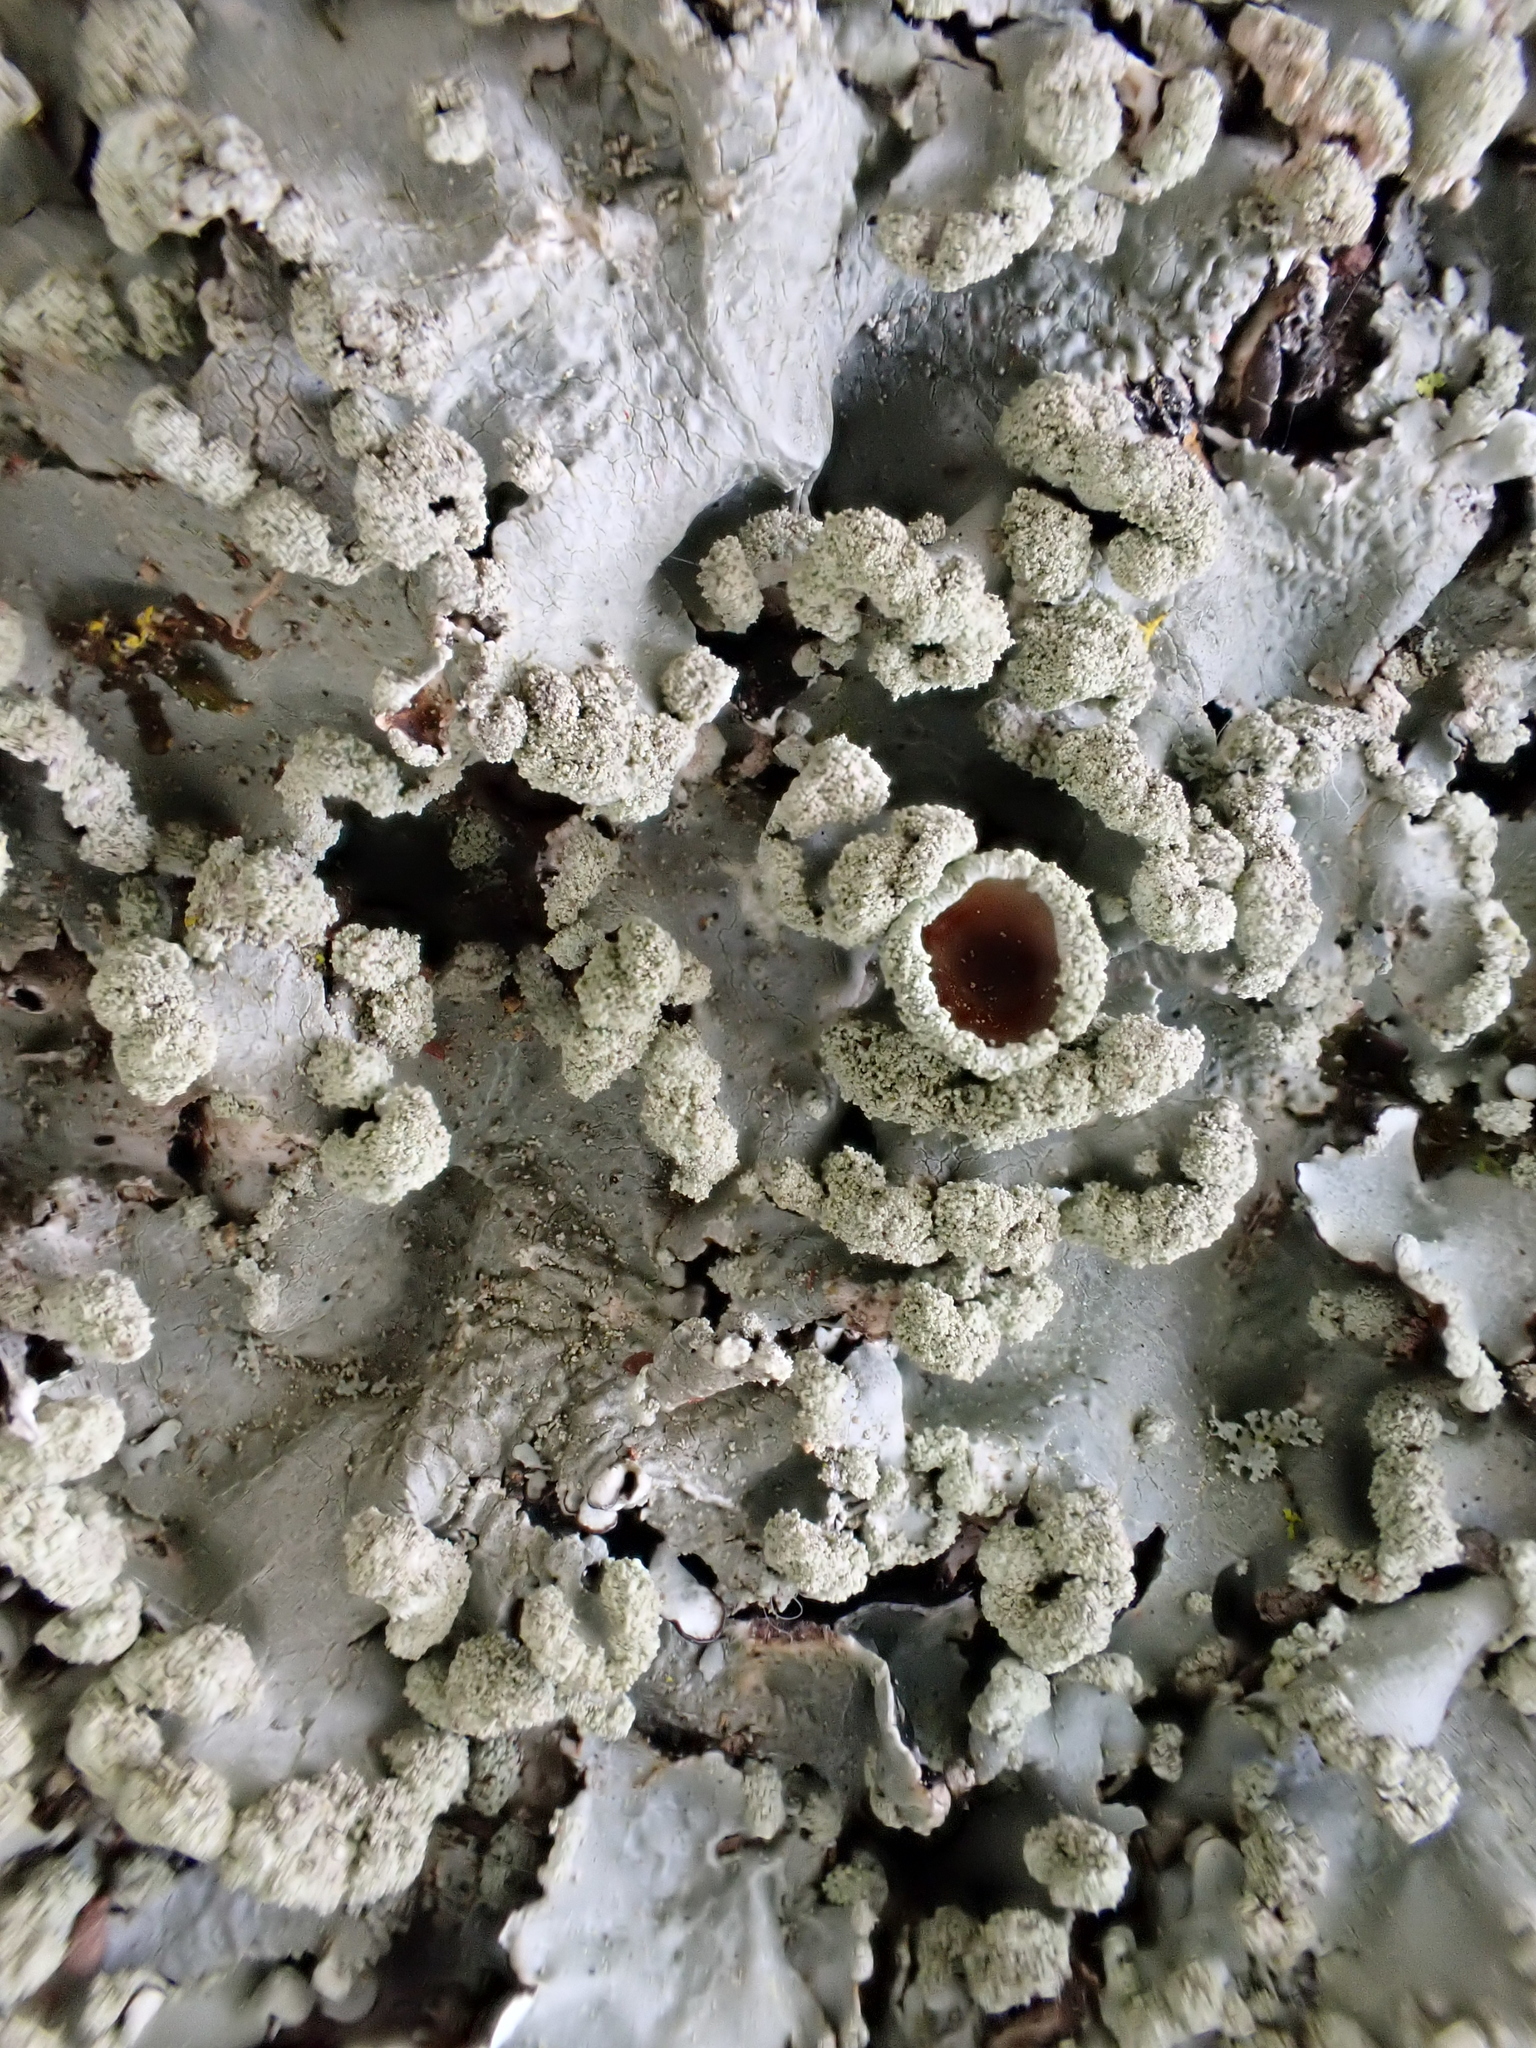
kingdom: Fungi
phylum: Ascomycota
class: Lecanoromycetes
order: Lecanorales
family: Parmeliaceae
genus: Parmotrema
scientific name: Parmotrema reticulatum
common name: Black sheet lichen
